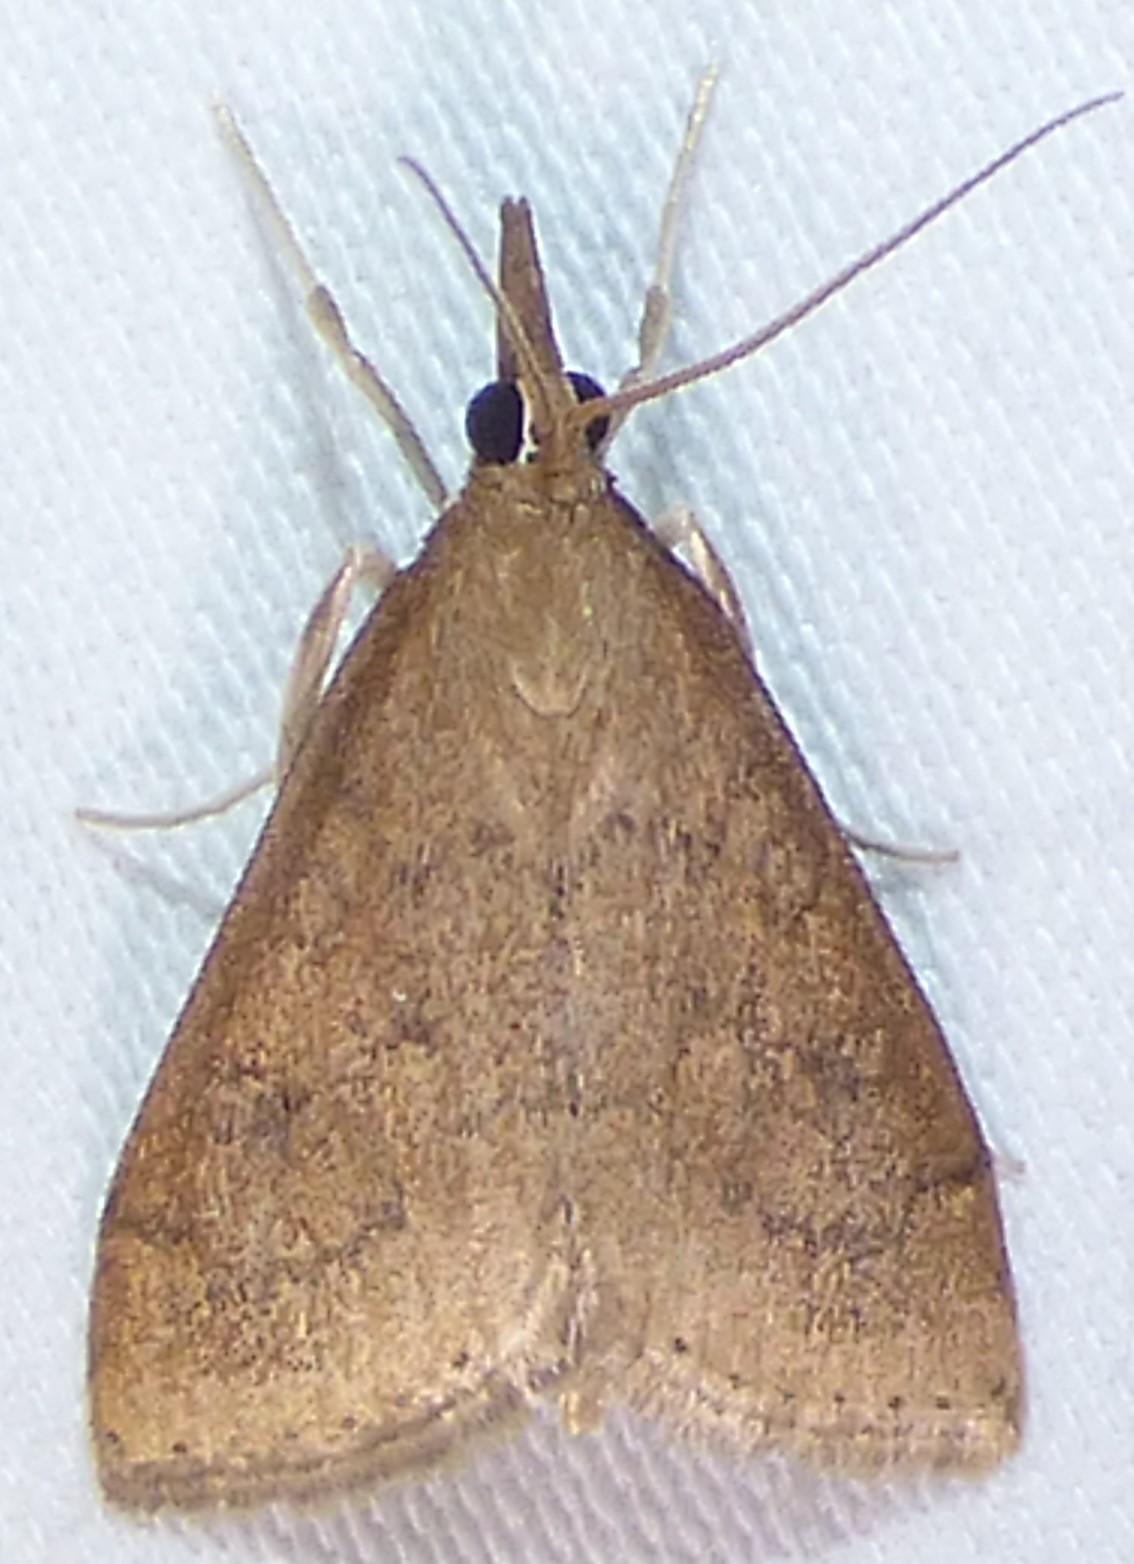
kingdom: Animalia
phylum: Arthropoda
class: Insecta
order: Lepidoptera
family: Crambidae
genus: Udea
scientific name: Udea rubigalis
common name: Celery leaftier moth
